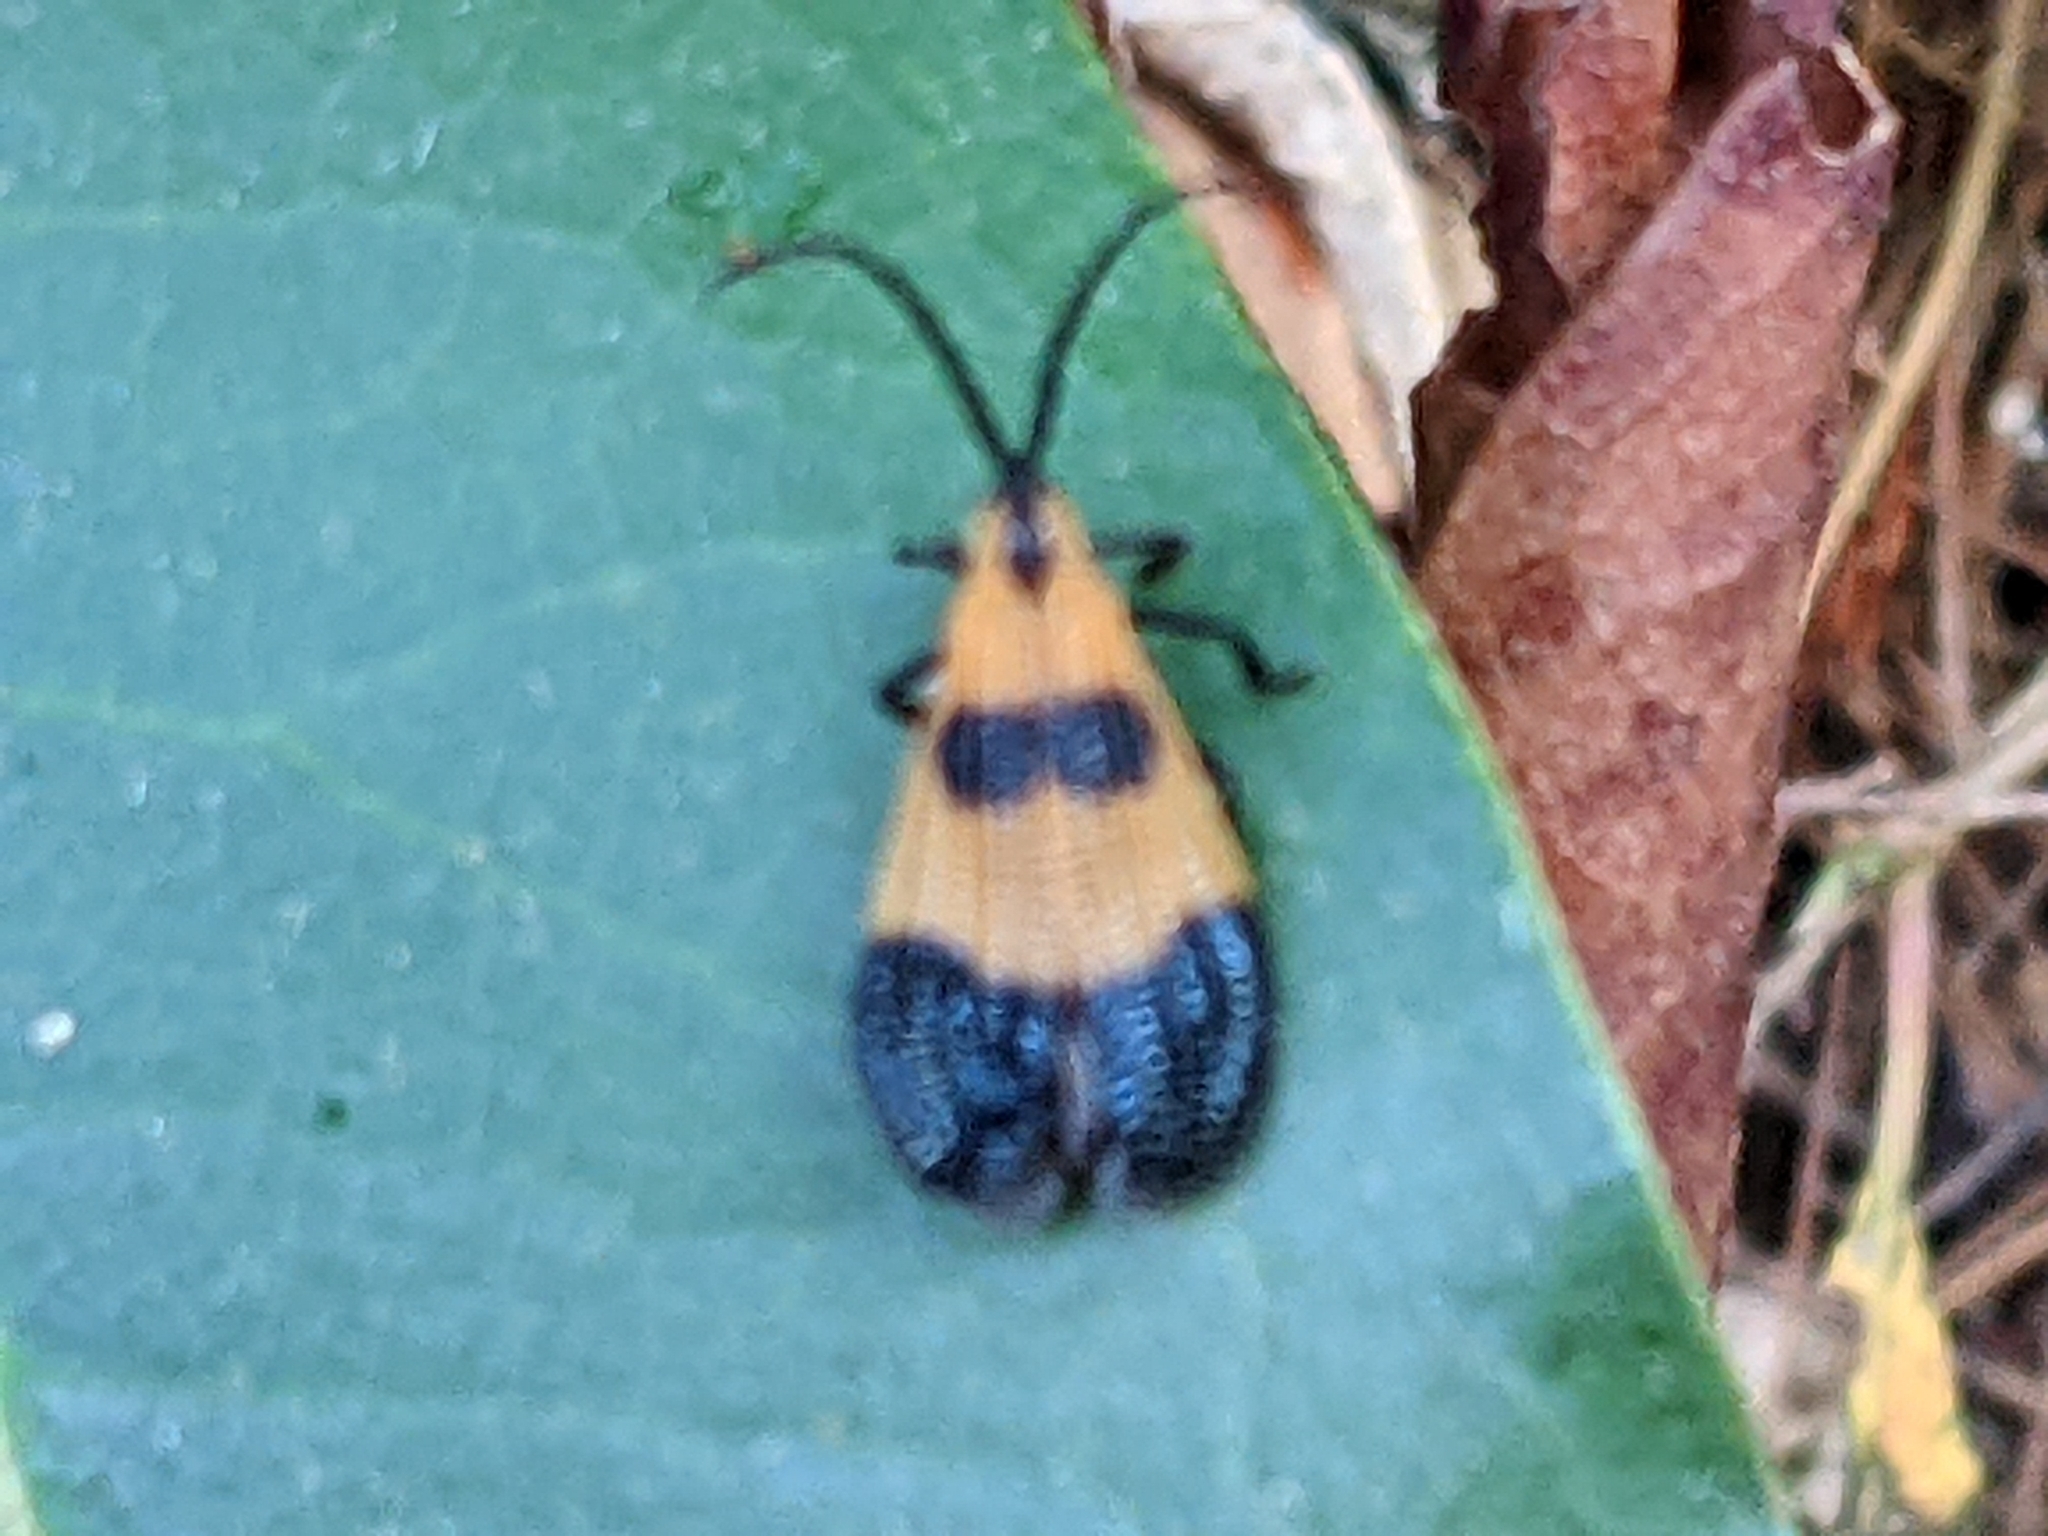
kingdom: Animalia
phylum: Arthropoda
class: Insecta
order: Coleoptera
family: Lycidae
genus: Calopteron
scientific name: Calopteron terminale
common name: End band net-winged beetle
